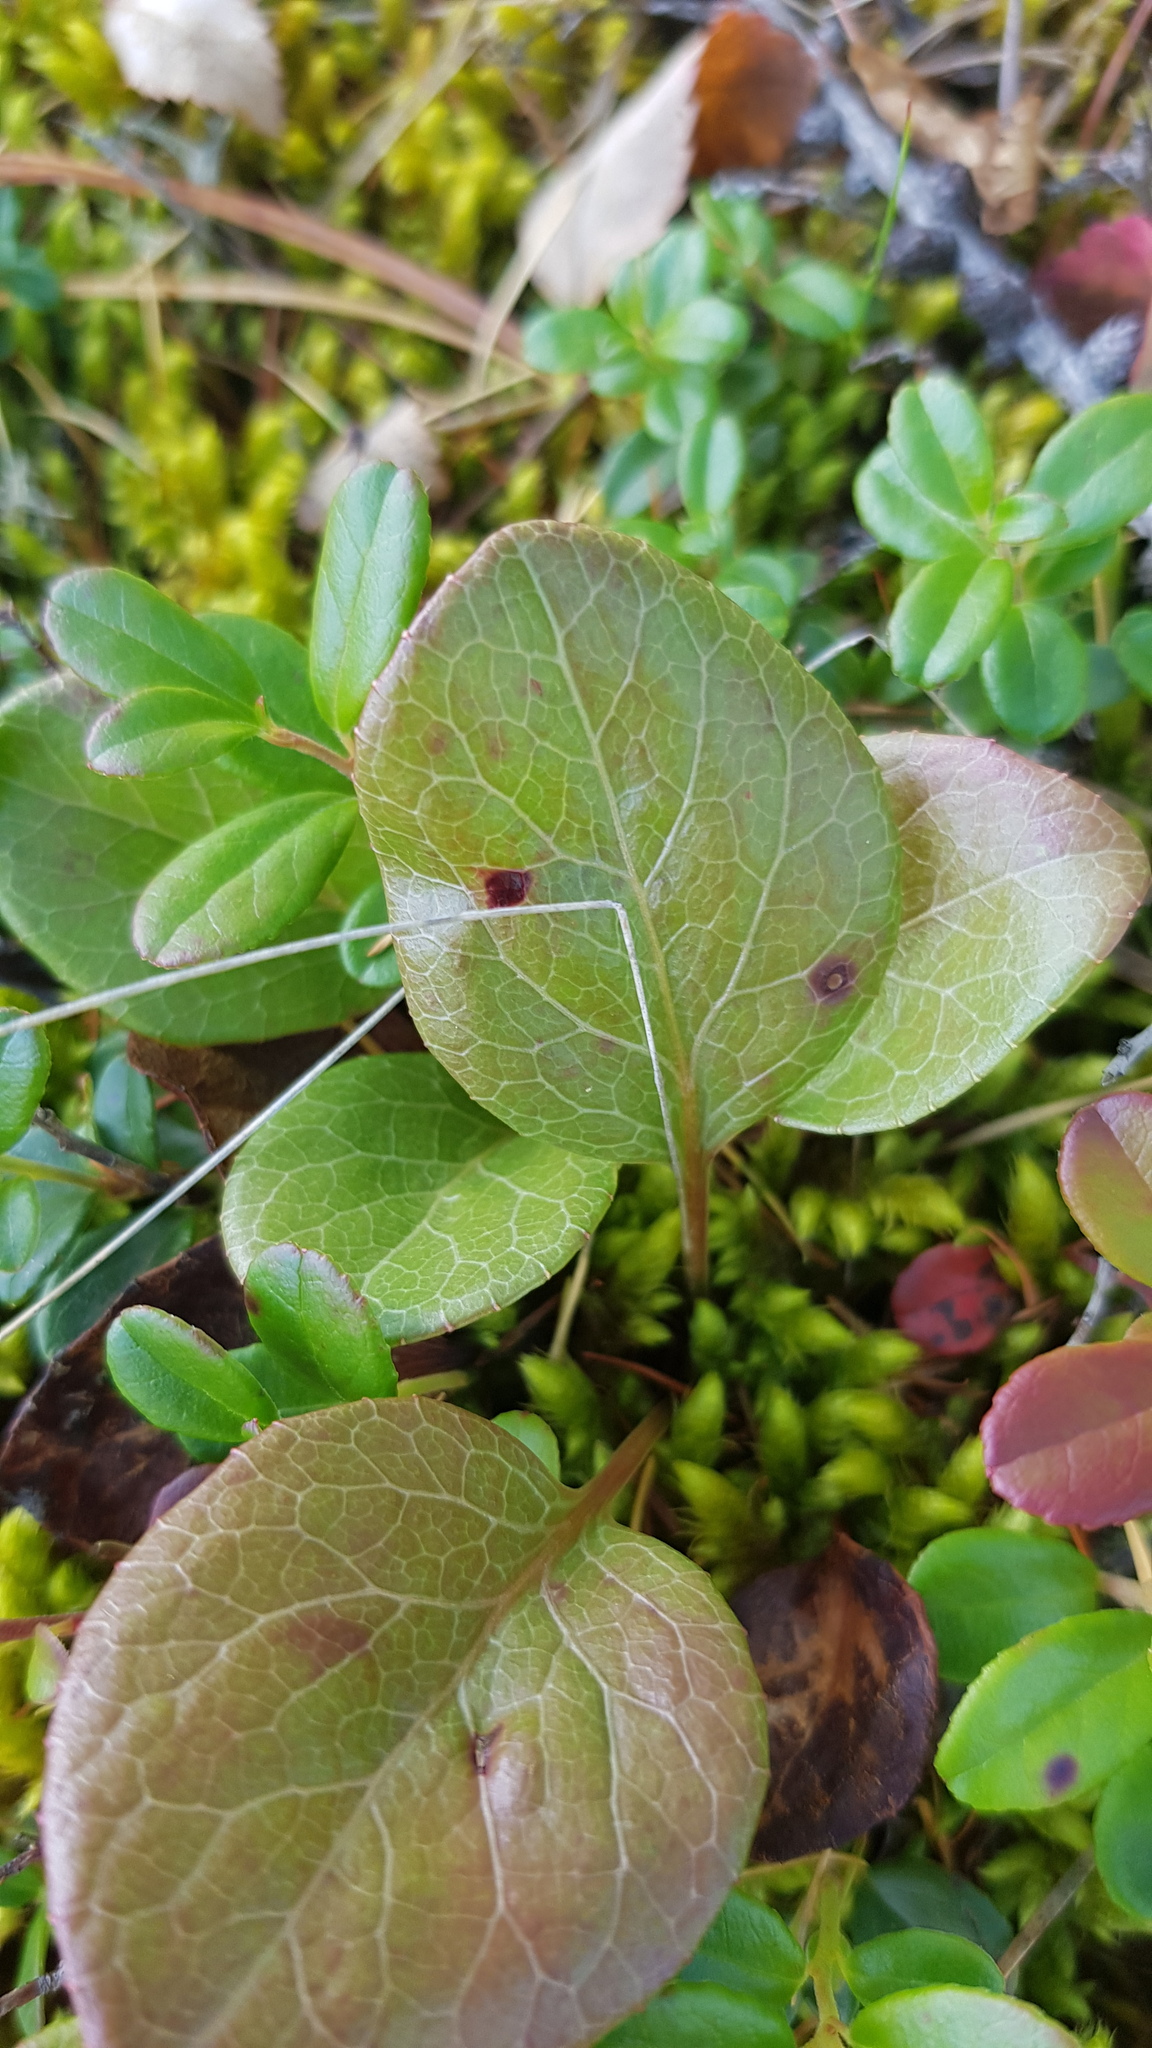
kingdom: Plantae
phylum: Tracheophyta
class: Magnoliopsida
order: Ericales
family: Ericaceae
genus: Pyrola
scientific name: Pyrola rotundifolia
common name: Round-leaved wintergreen
